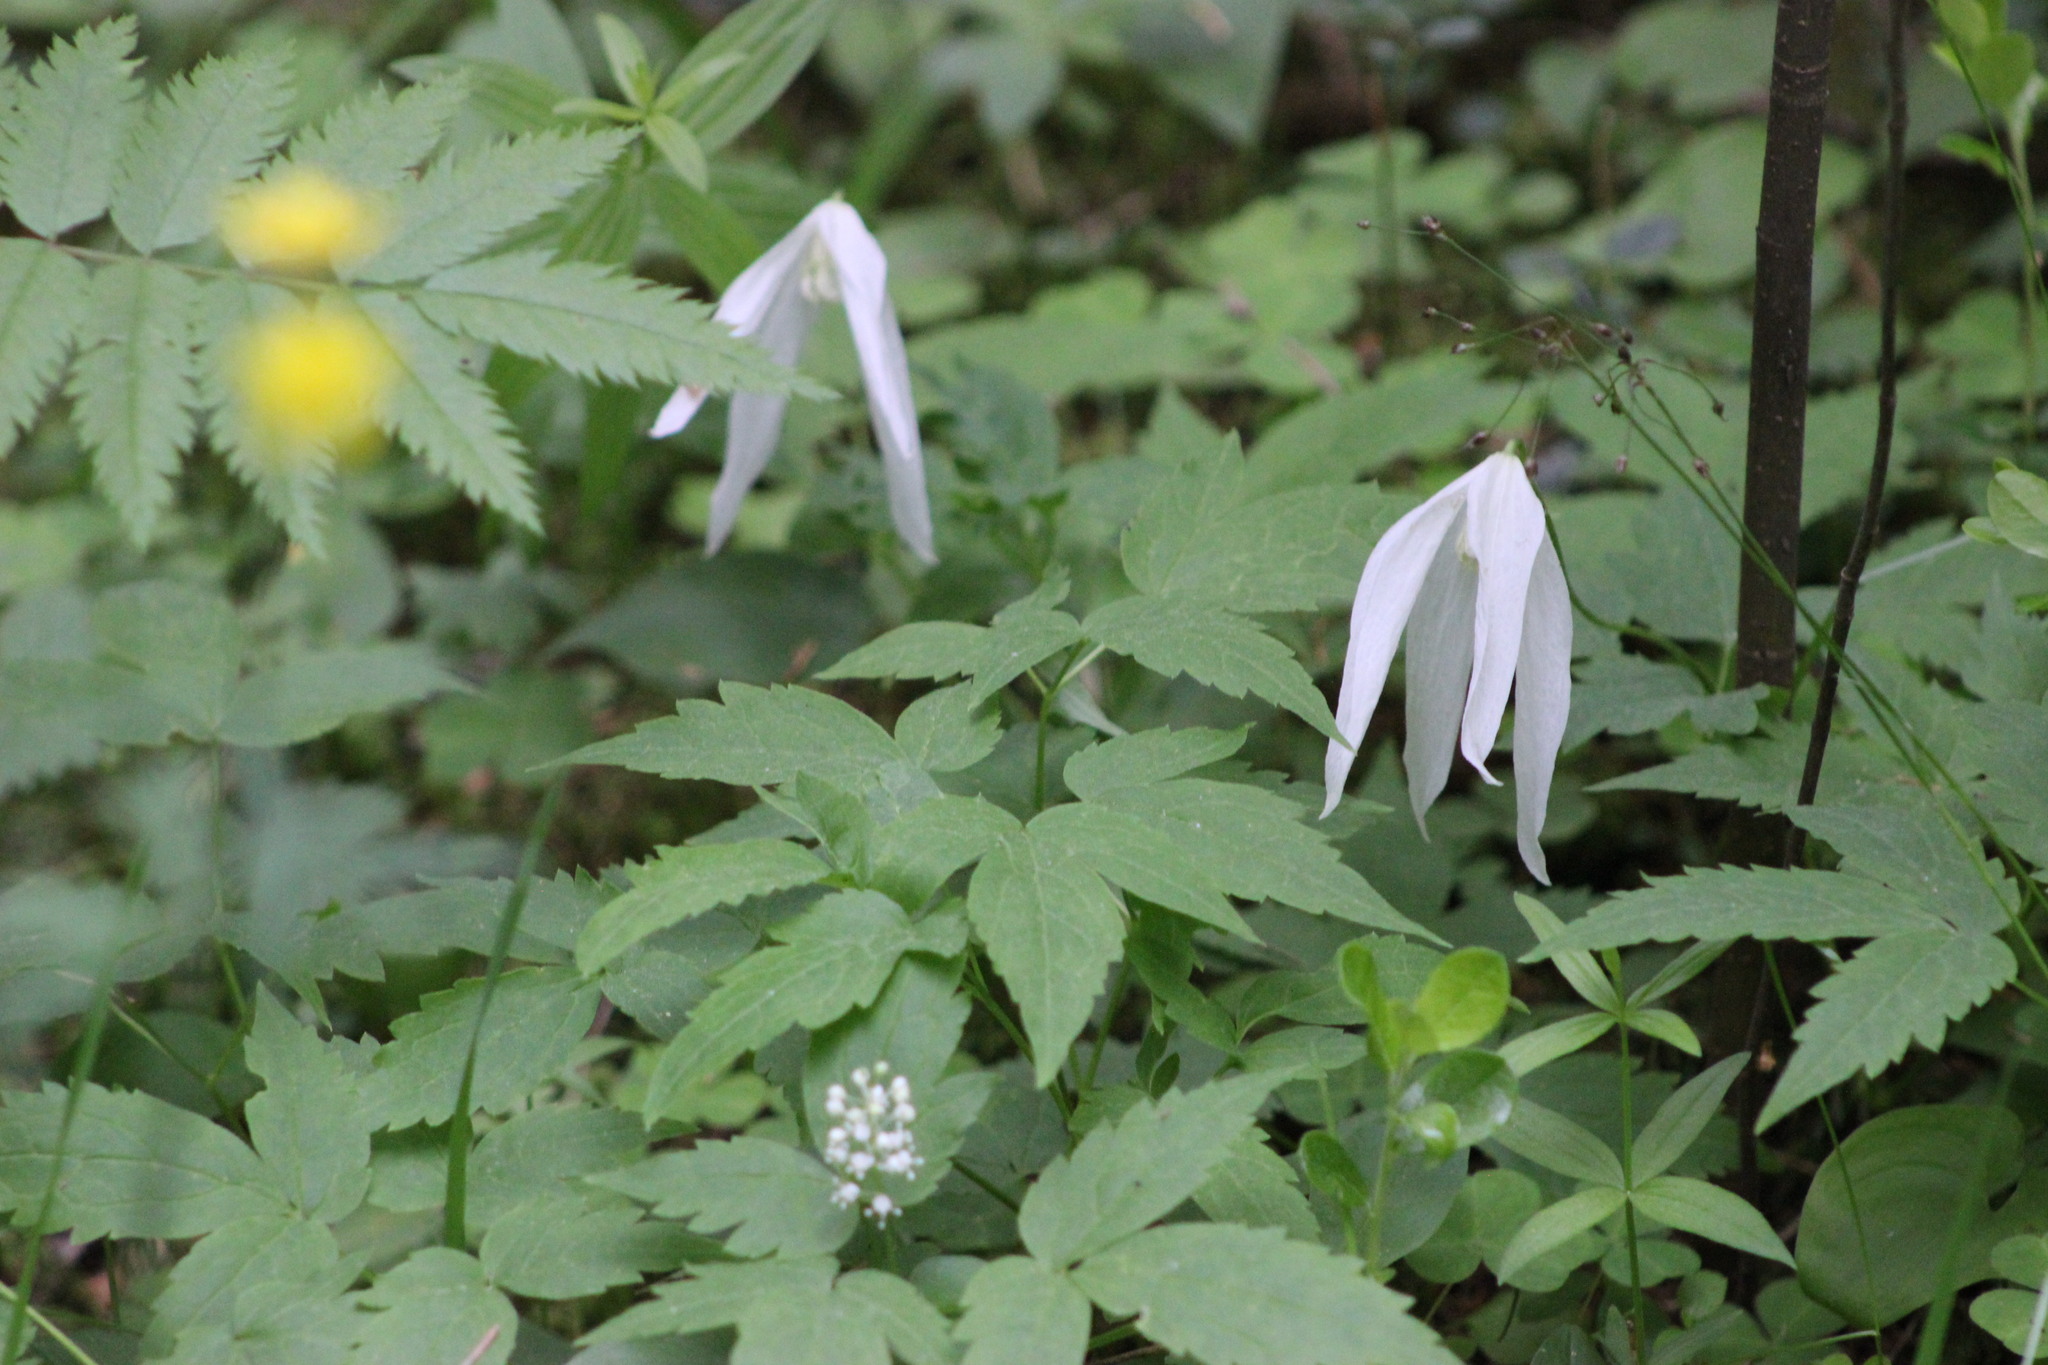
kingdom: Plantae
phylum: Tracheophyta
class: Magnoliopsida
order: Ranunculales
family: Ranunculaceae
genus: Clematis
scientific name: Clematis sibirica
